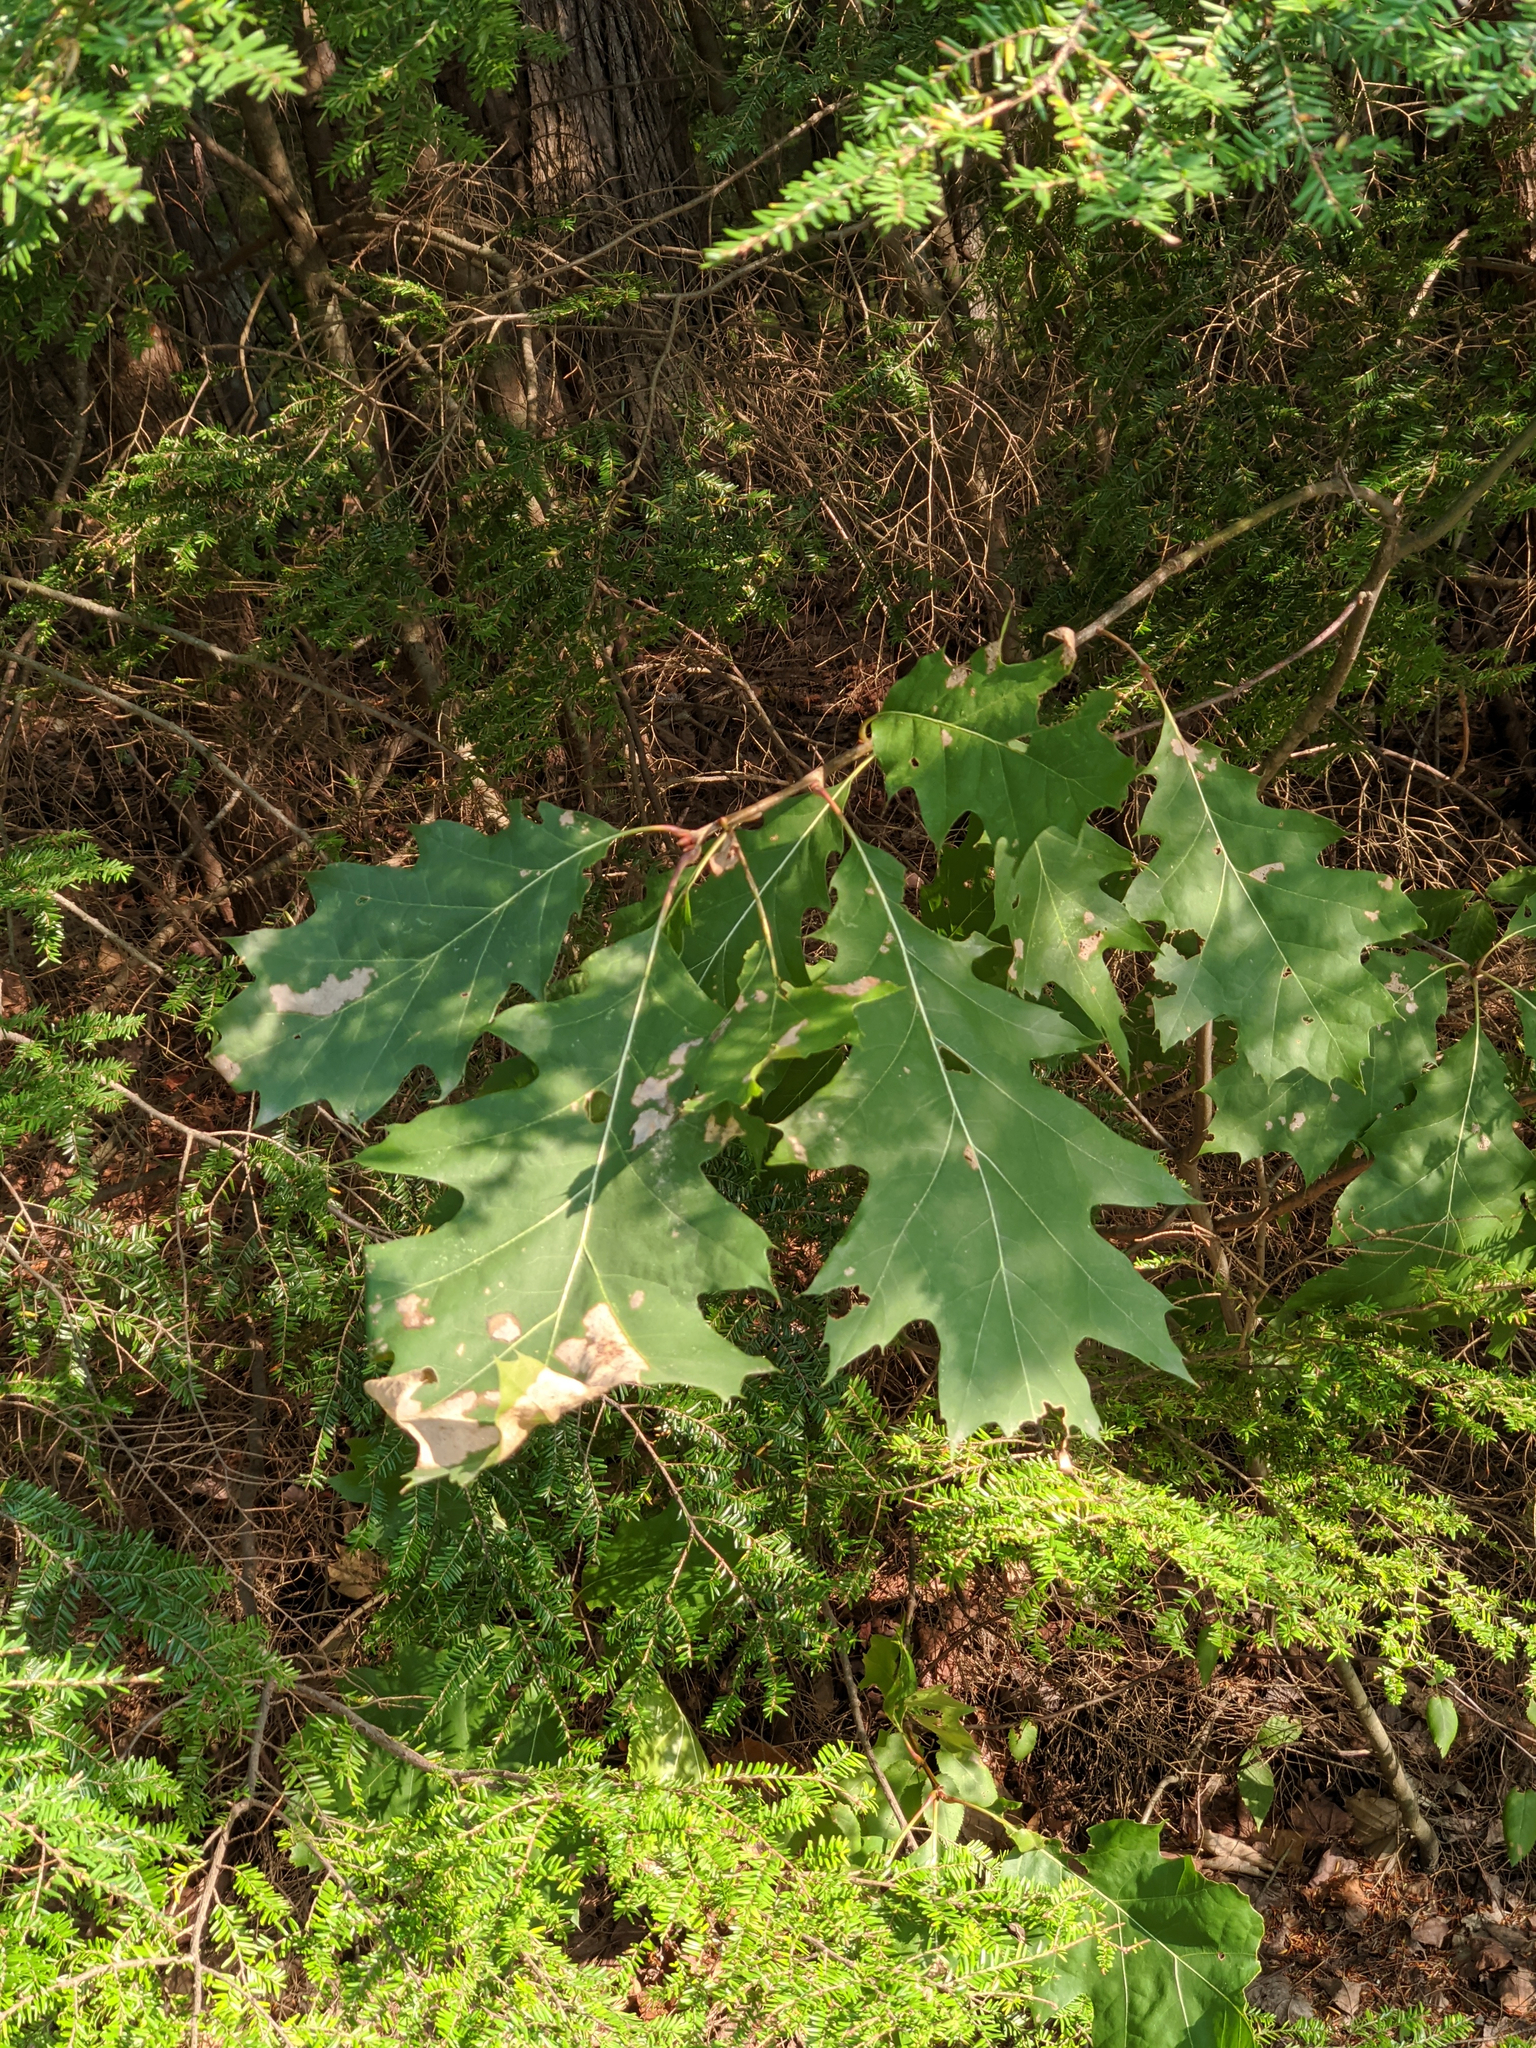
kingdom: Plantae
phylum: Tracheophyta
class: Magnoliopsida
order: Fagales
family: Fagaceae
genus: Quercus
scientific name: Quercus rubra
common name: Red oak
